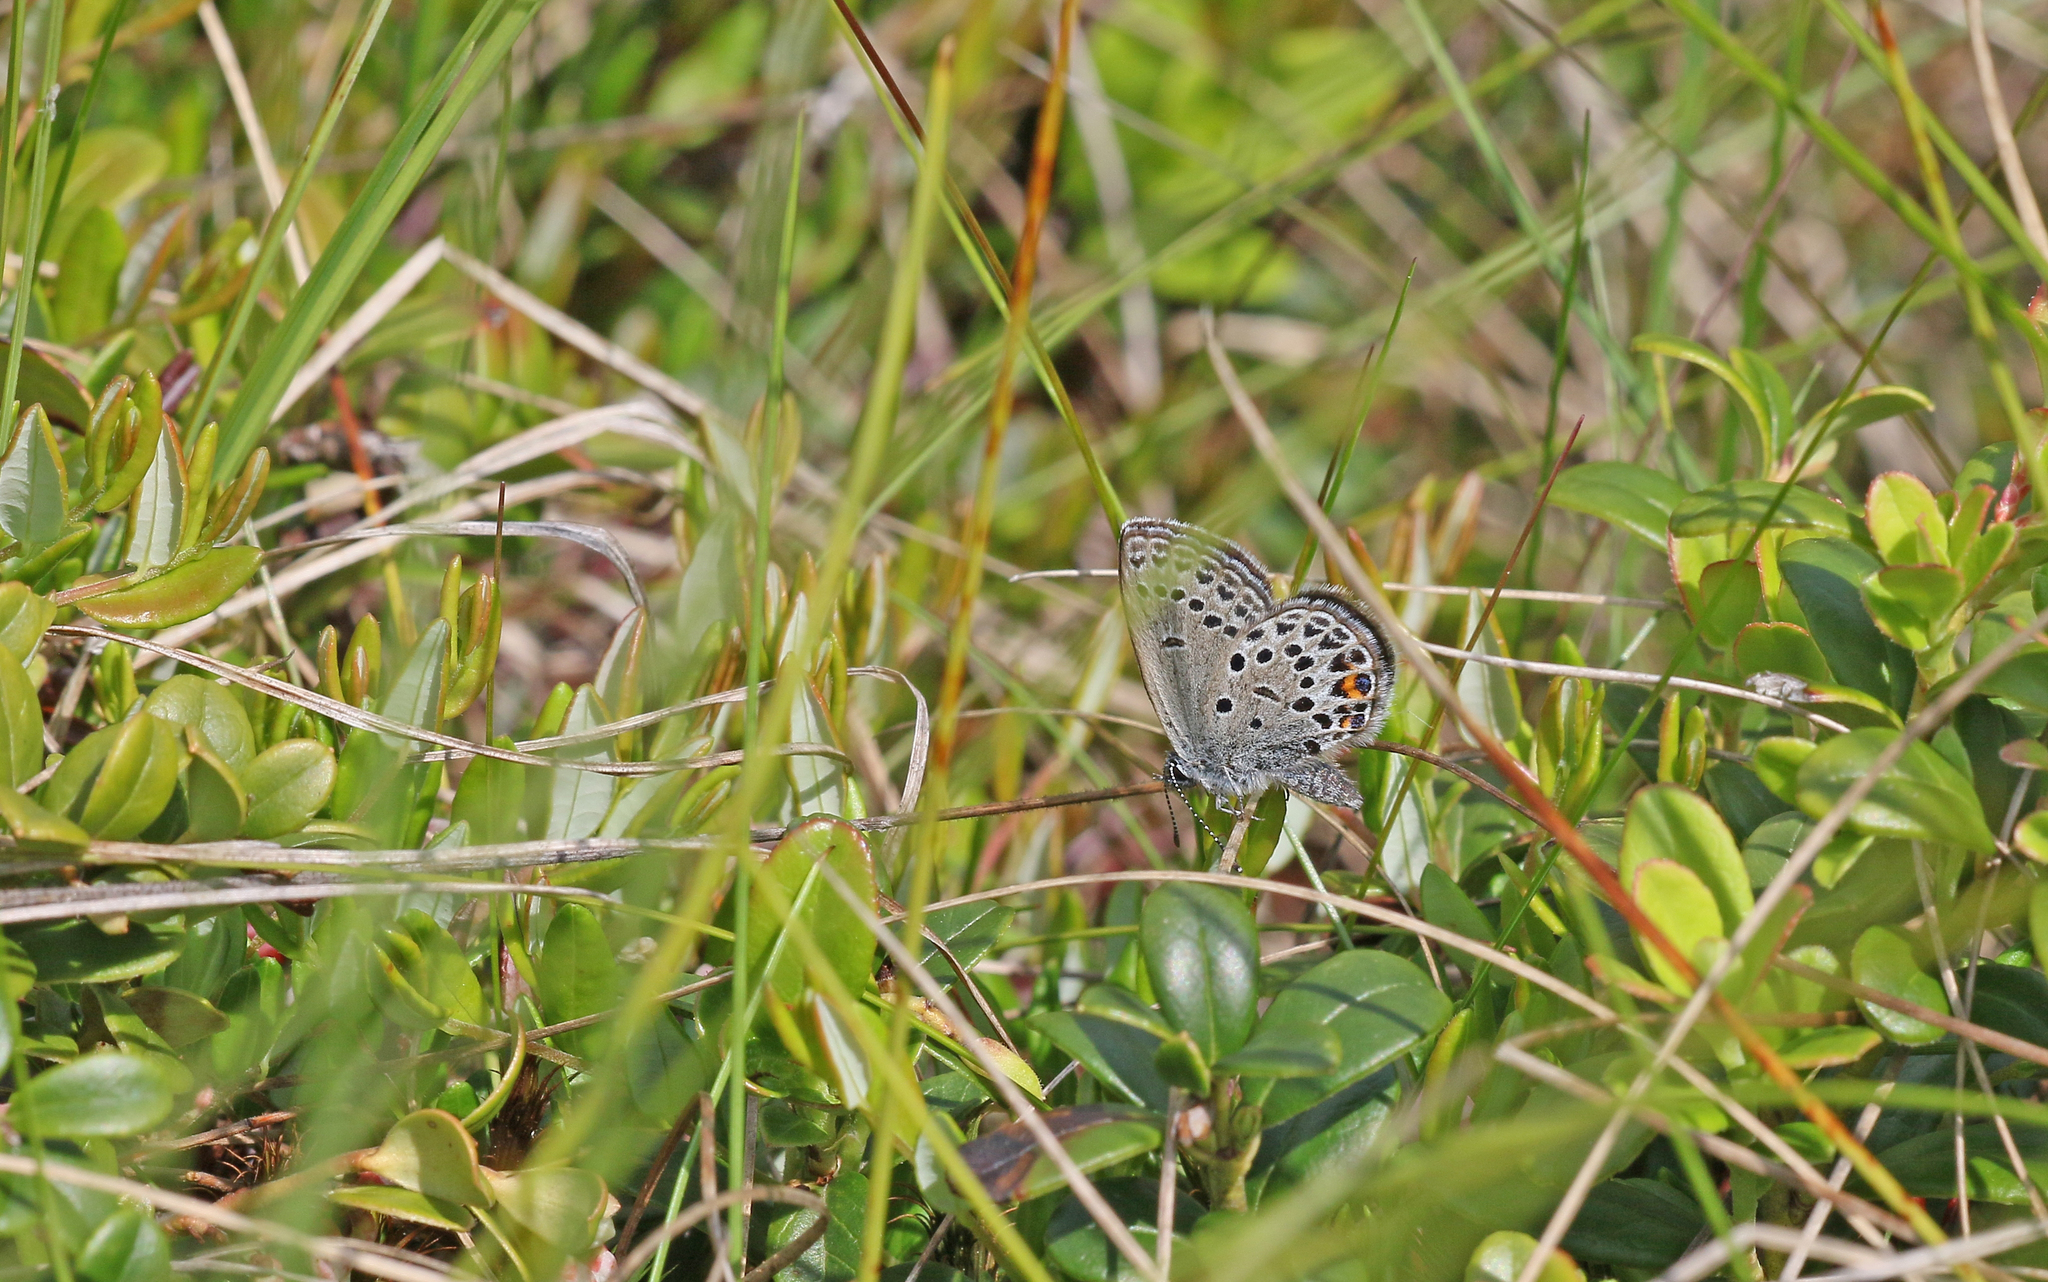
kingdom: Animalia
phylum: Arthropoda
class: Insecta
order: Lepidoptera
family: Lycaenidae
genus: Vacciniina
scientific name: Vacciniina optilete
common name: Cranberry blue
